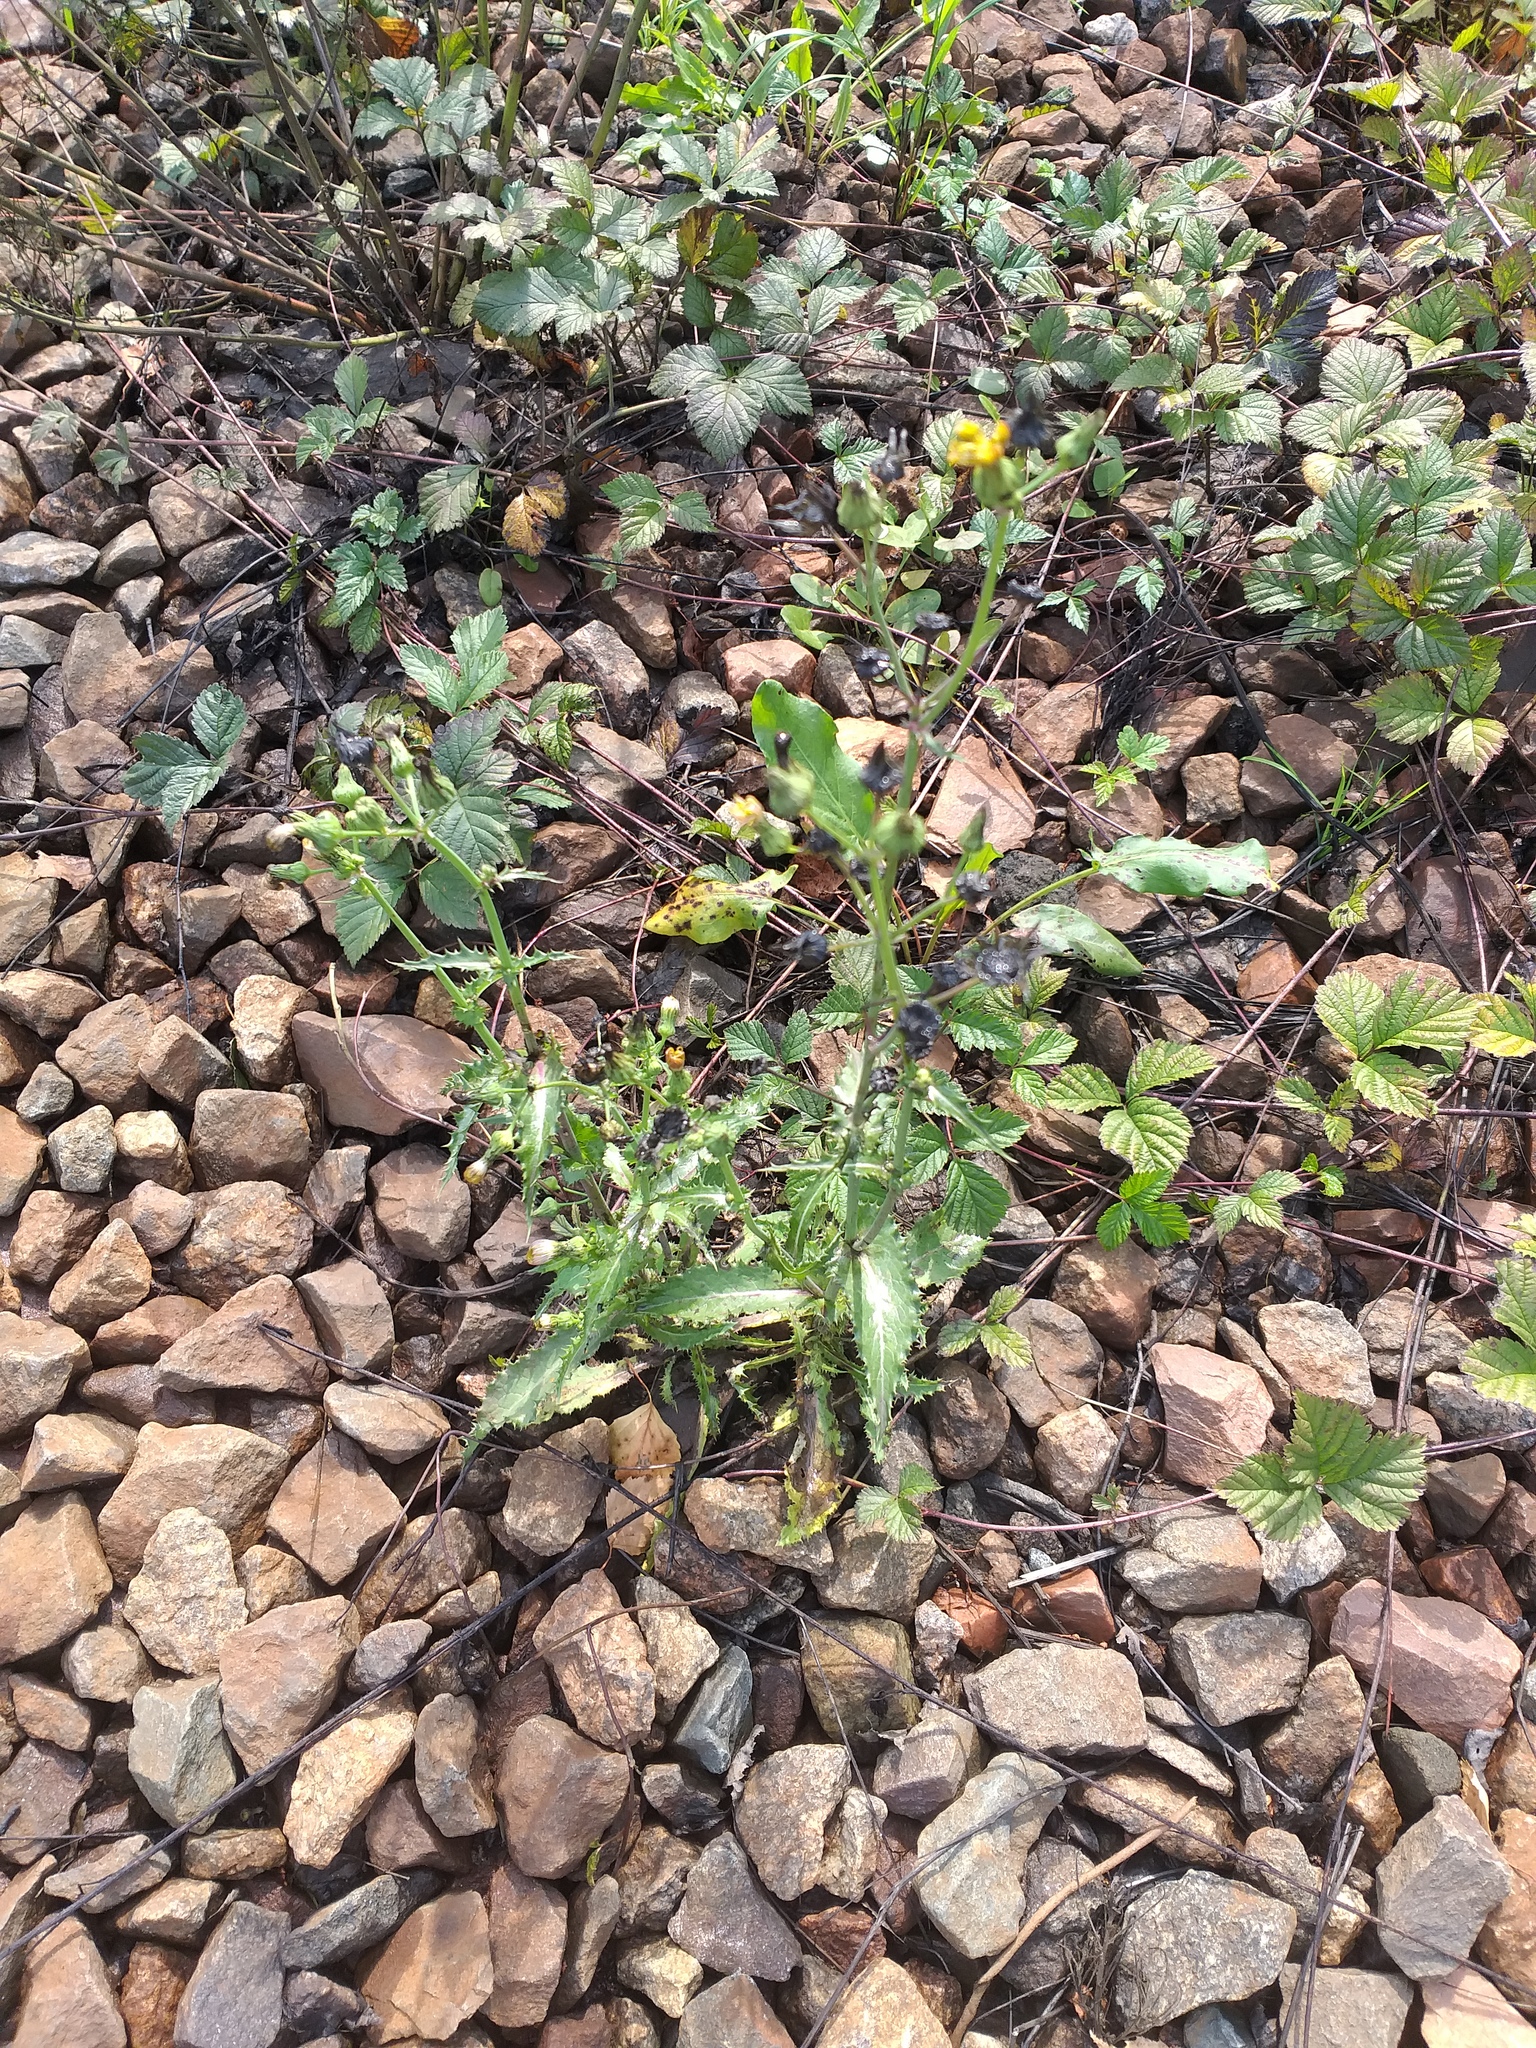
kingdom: Plantae
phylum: Tracheophyta
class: Magnoliopsida
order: Asterales
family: Asteraceae
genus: Sonchus
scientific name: Sonchus asper
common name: Prickly sow-thistle
